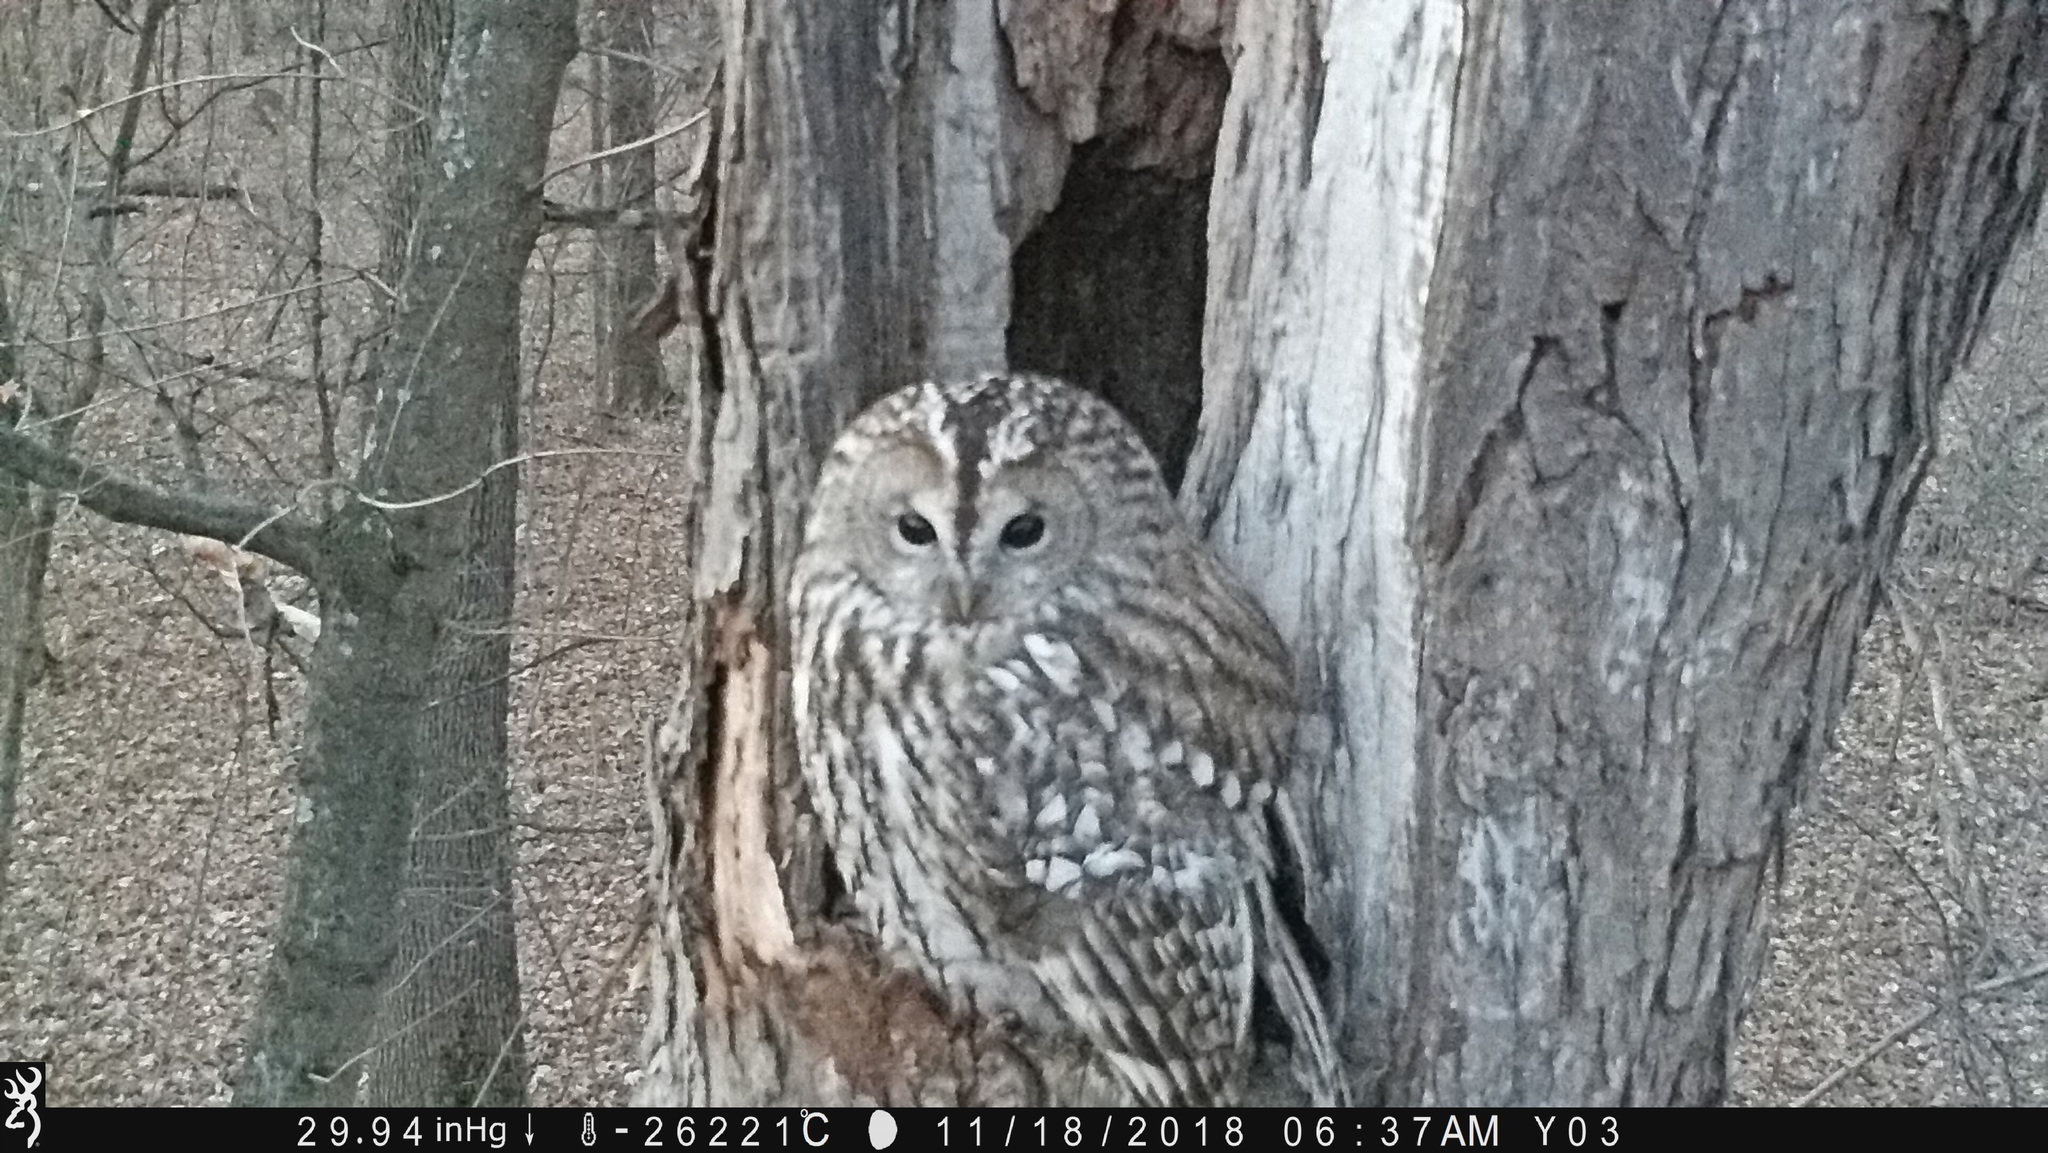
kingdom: Animalia
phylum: Chordata
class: Aves
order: Strigiformes
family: Strigidae
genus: Strix
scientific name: Strix aluco
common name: Tawny owl
